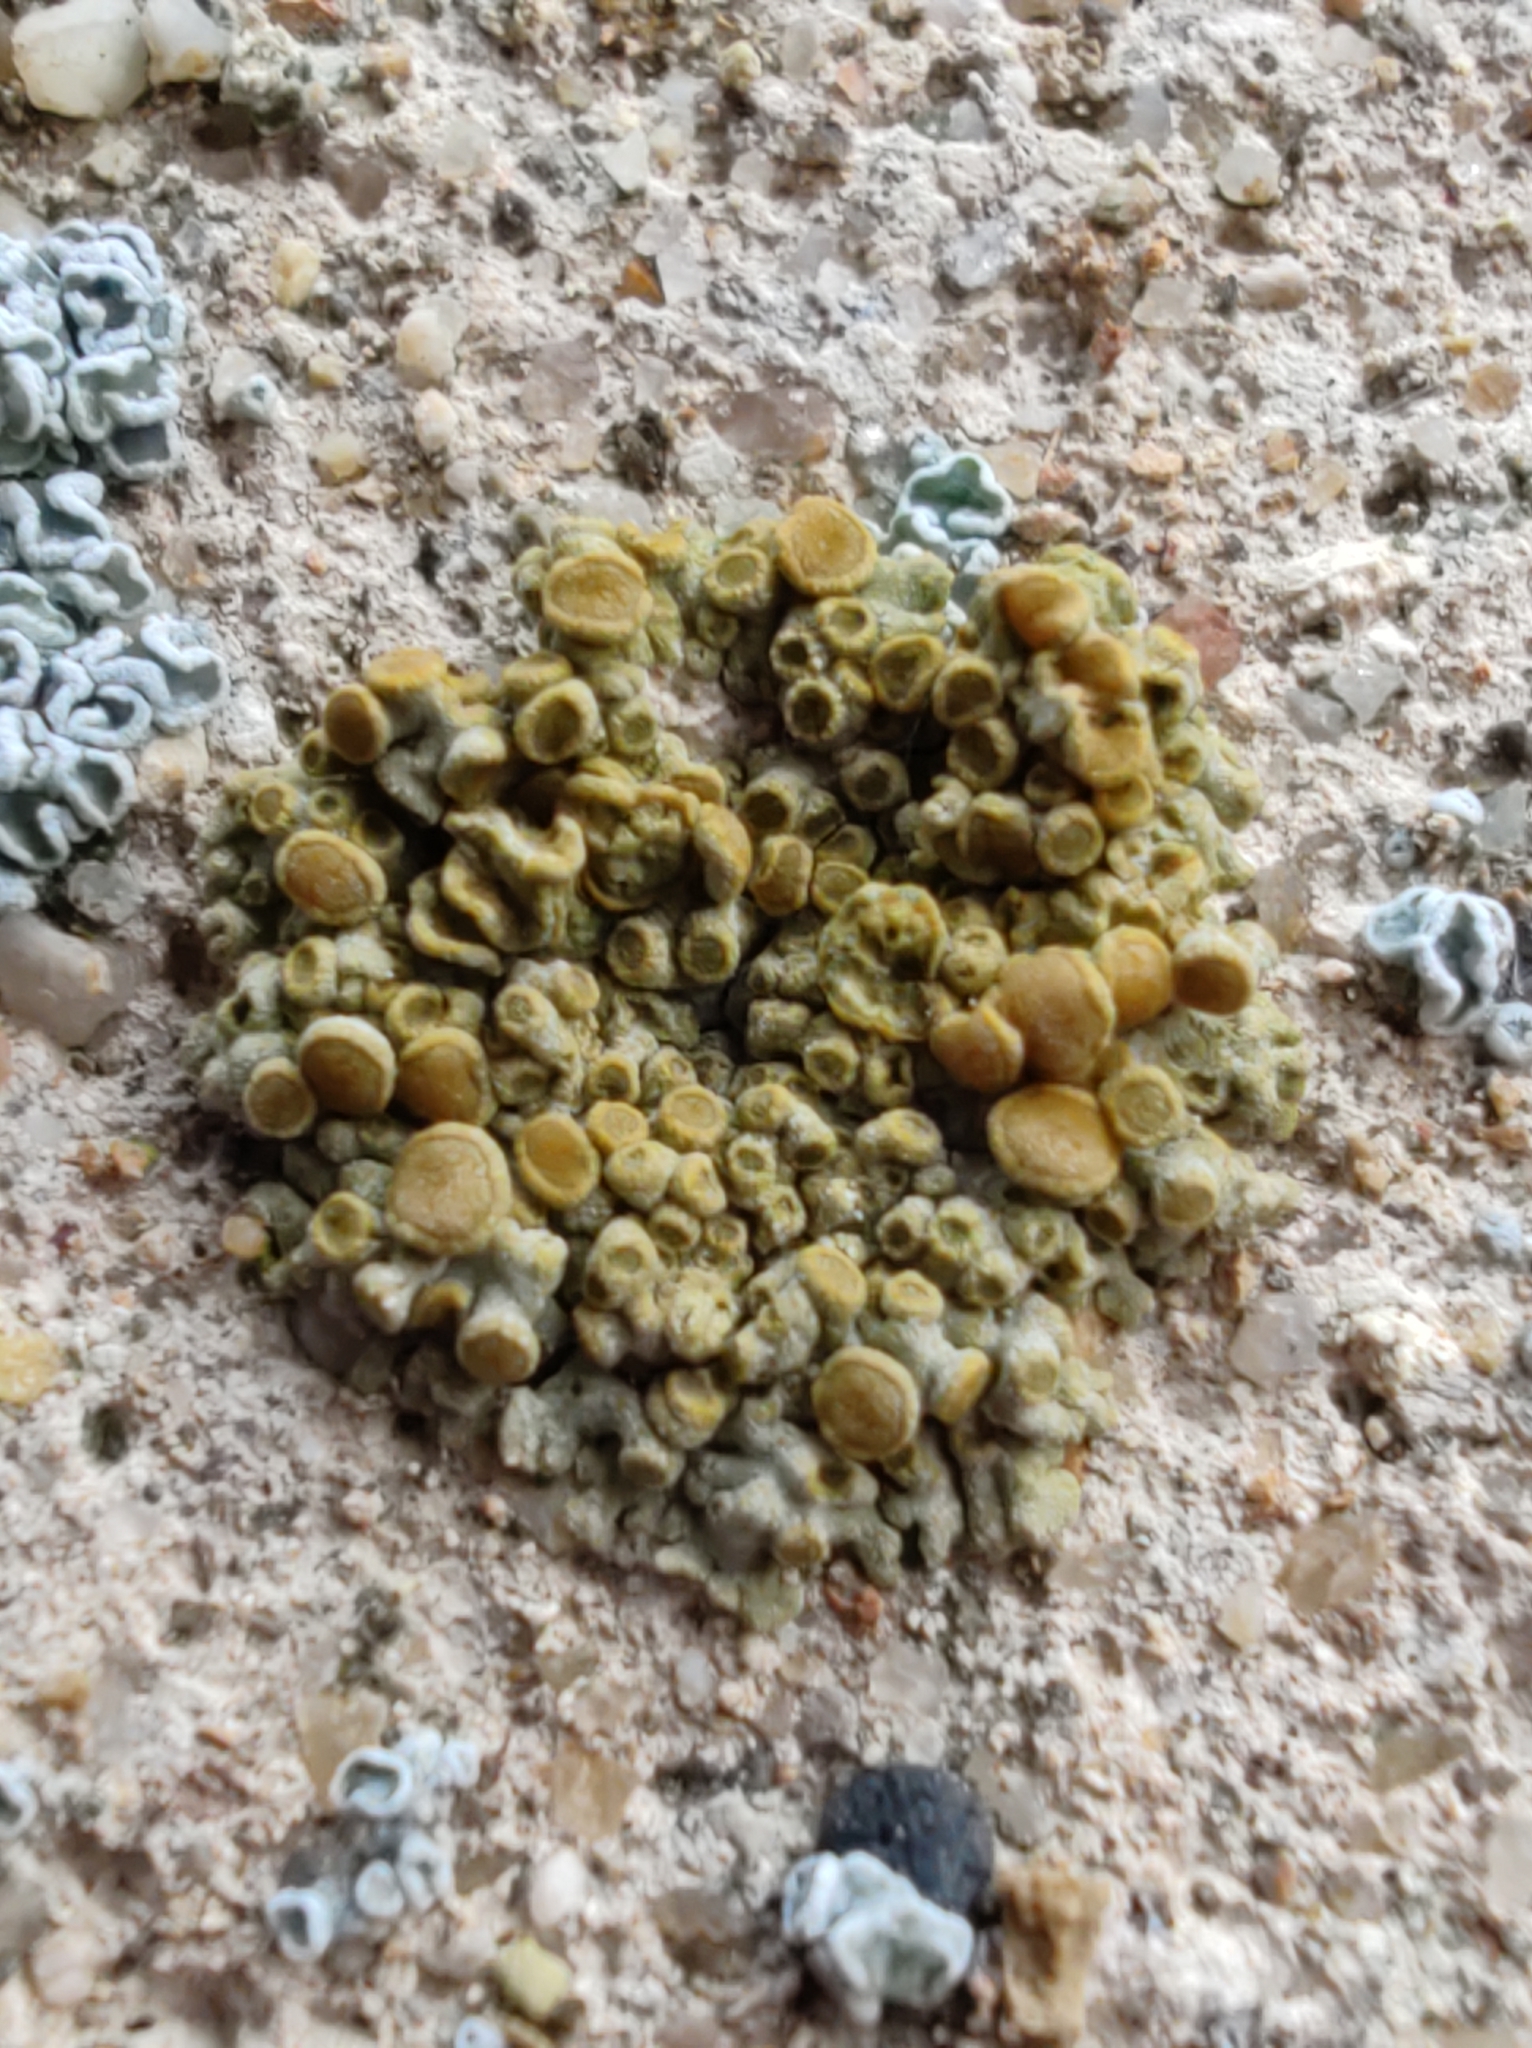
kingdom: Fungi
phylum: Ascomycota
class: Lecanoromycetes
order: Teloschistales
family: Teloschistaceae
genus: Calogaya
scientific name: Calogaya saxicola
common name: Rock jewel lichen
